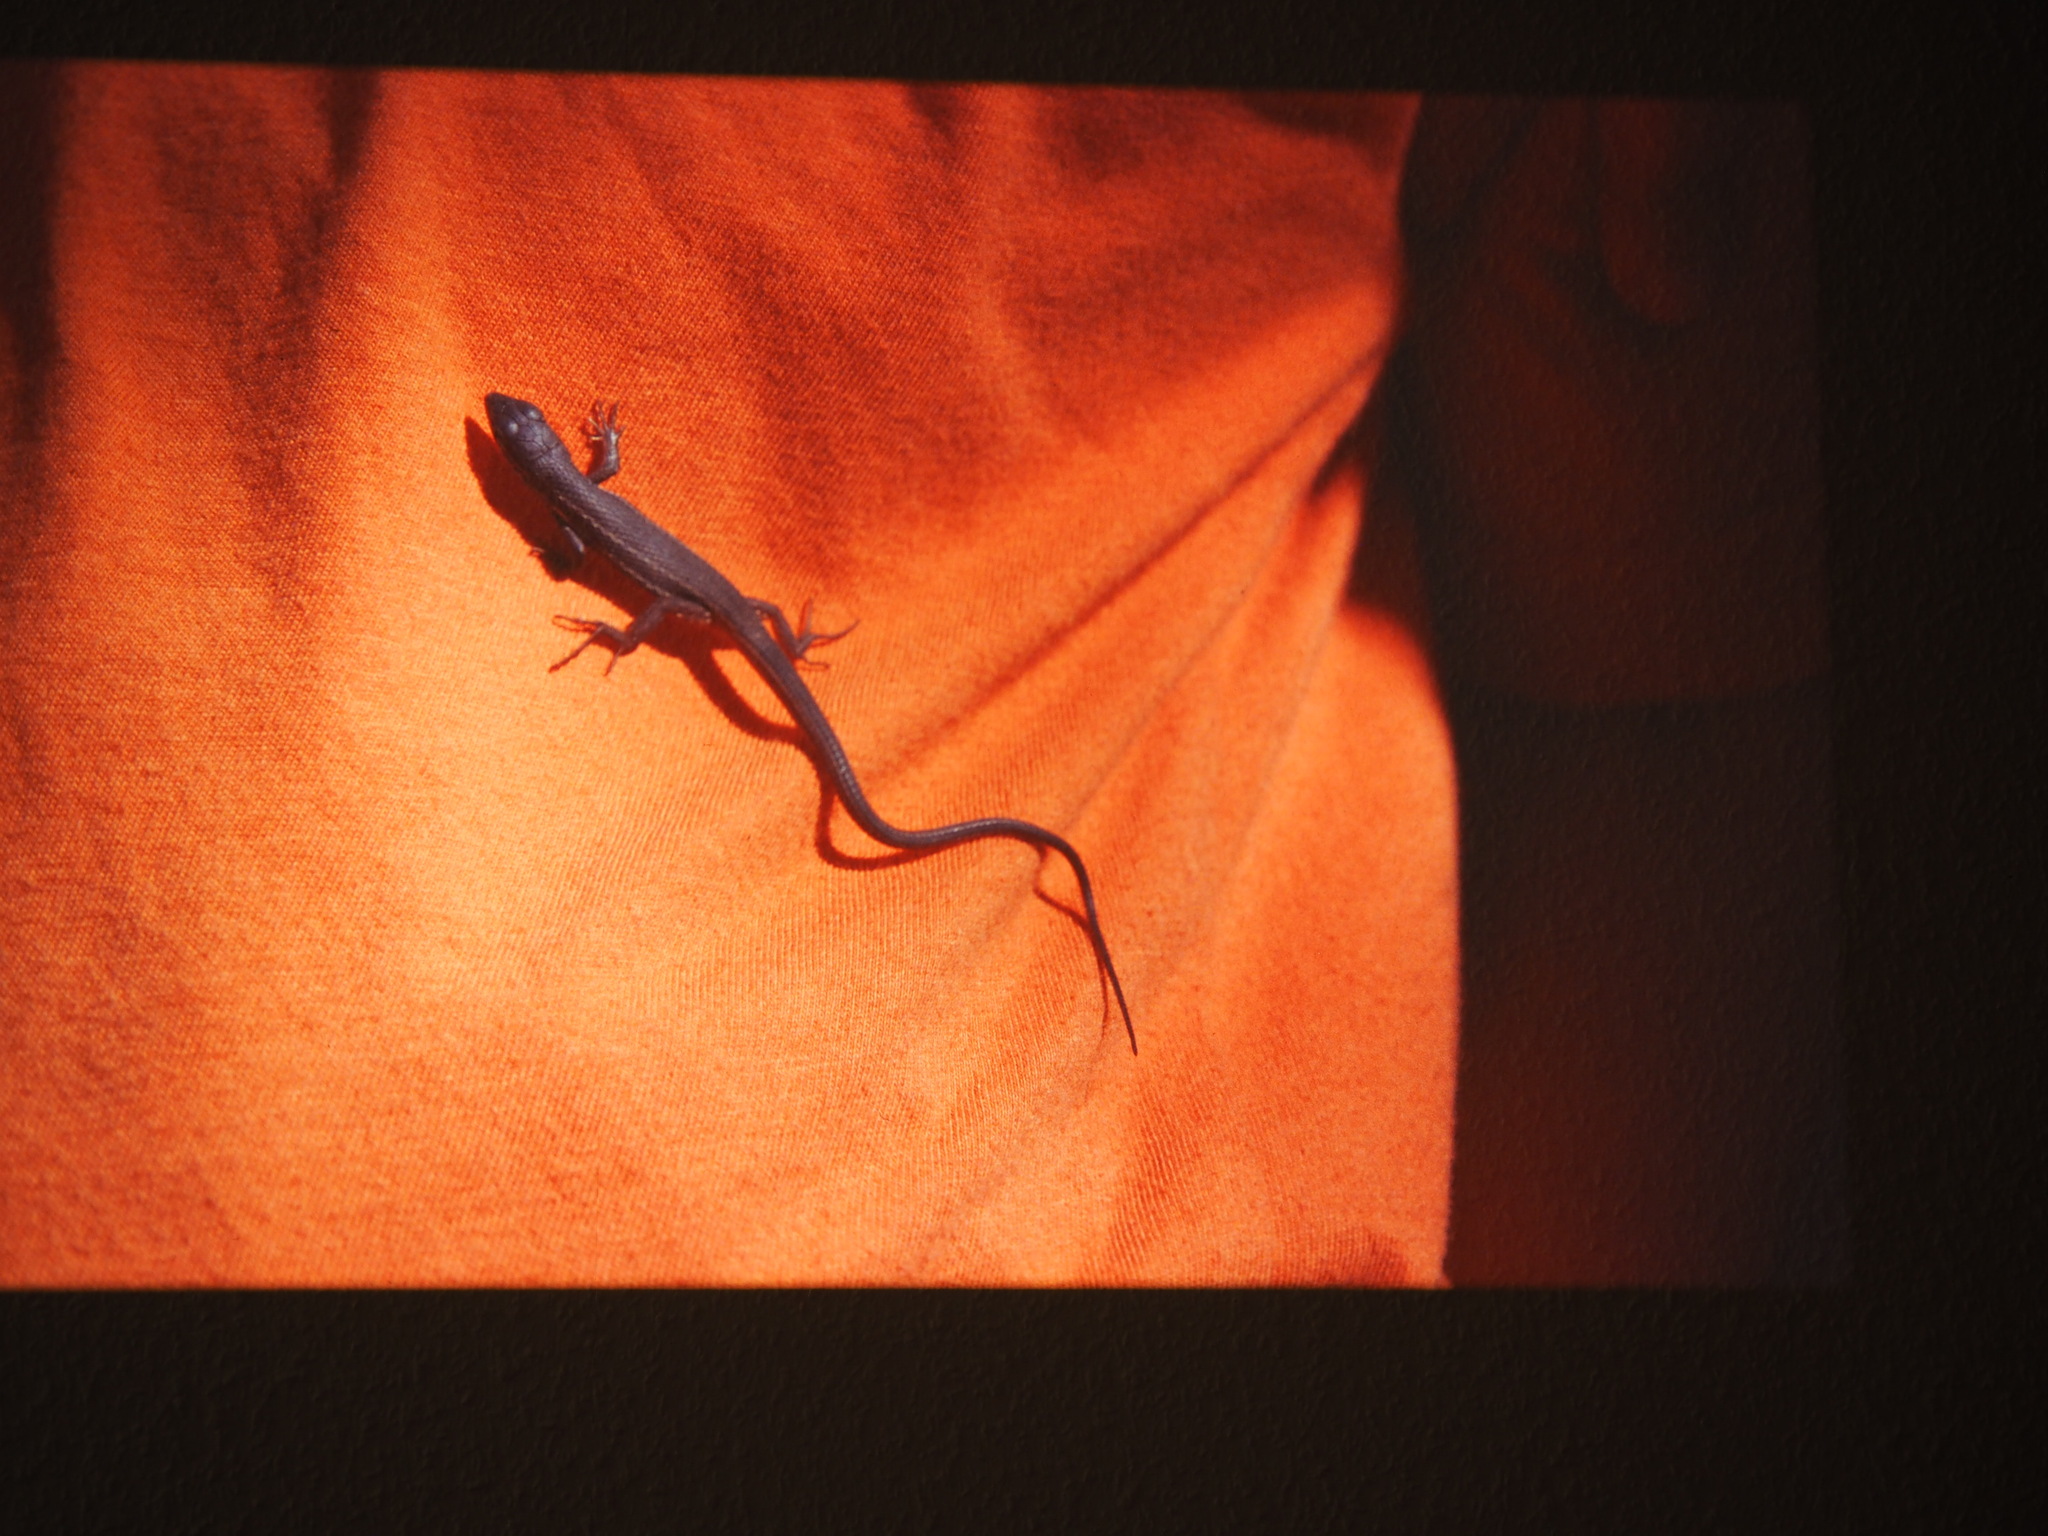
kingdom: Animalia
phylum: Chordata
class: Squamata
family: Lacertidae
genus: Psammodromus
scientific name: Psammodromus algirus
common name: Algerian psammodromus
